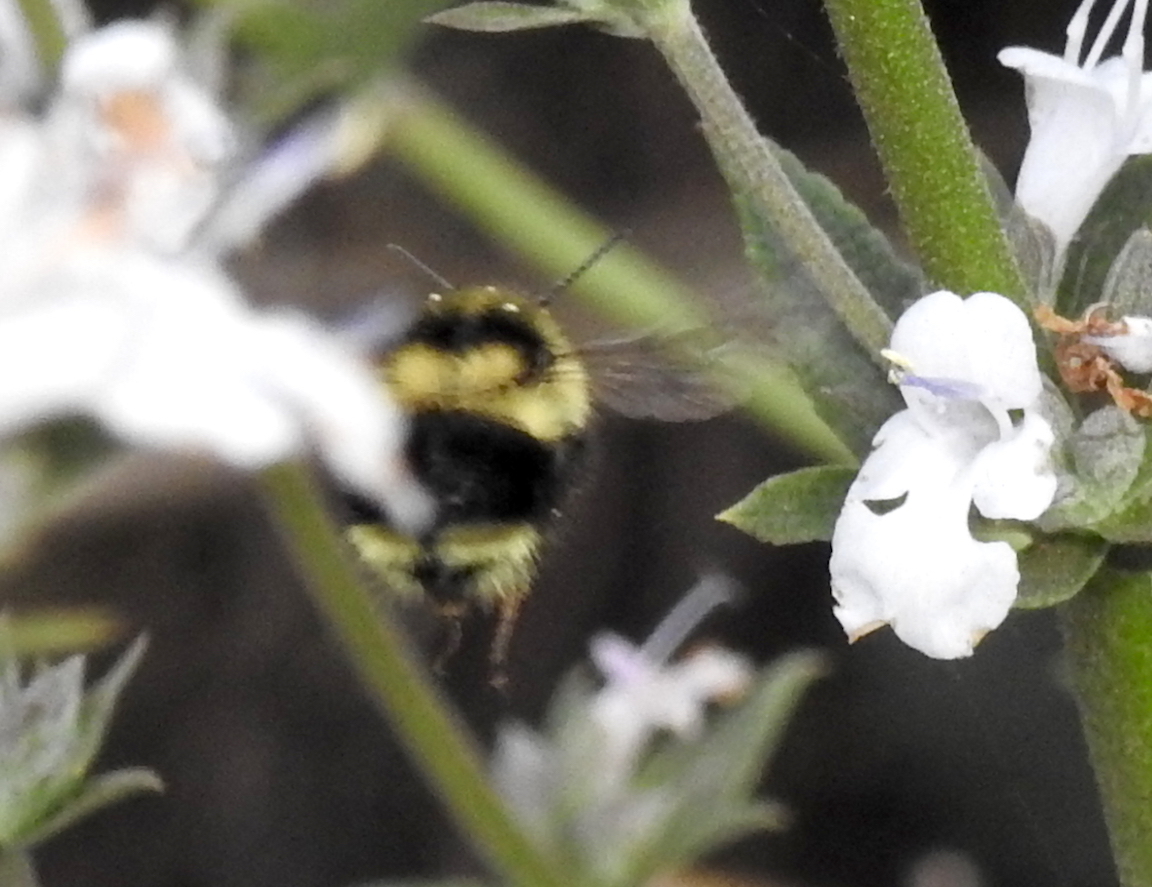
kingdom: Animalia
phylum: Arthropoda
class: Insecta
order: Hymenoptera
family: Apidae
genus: Bombus
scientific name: Bombus melanopygus
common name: Black tail bumble bee
